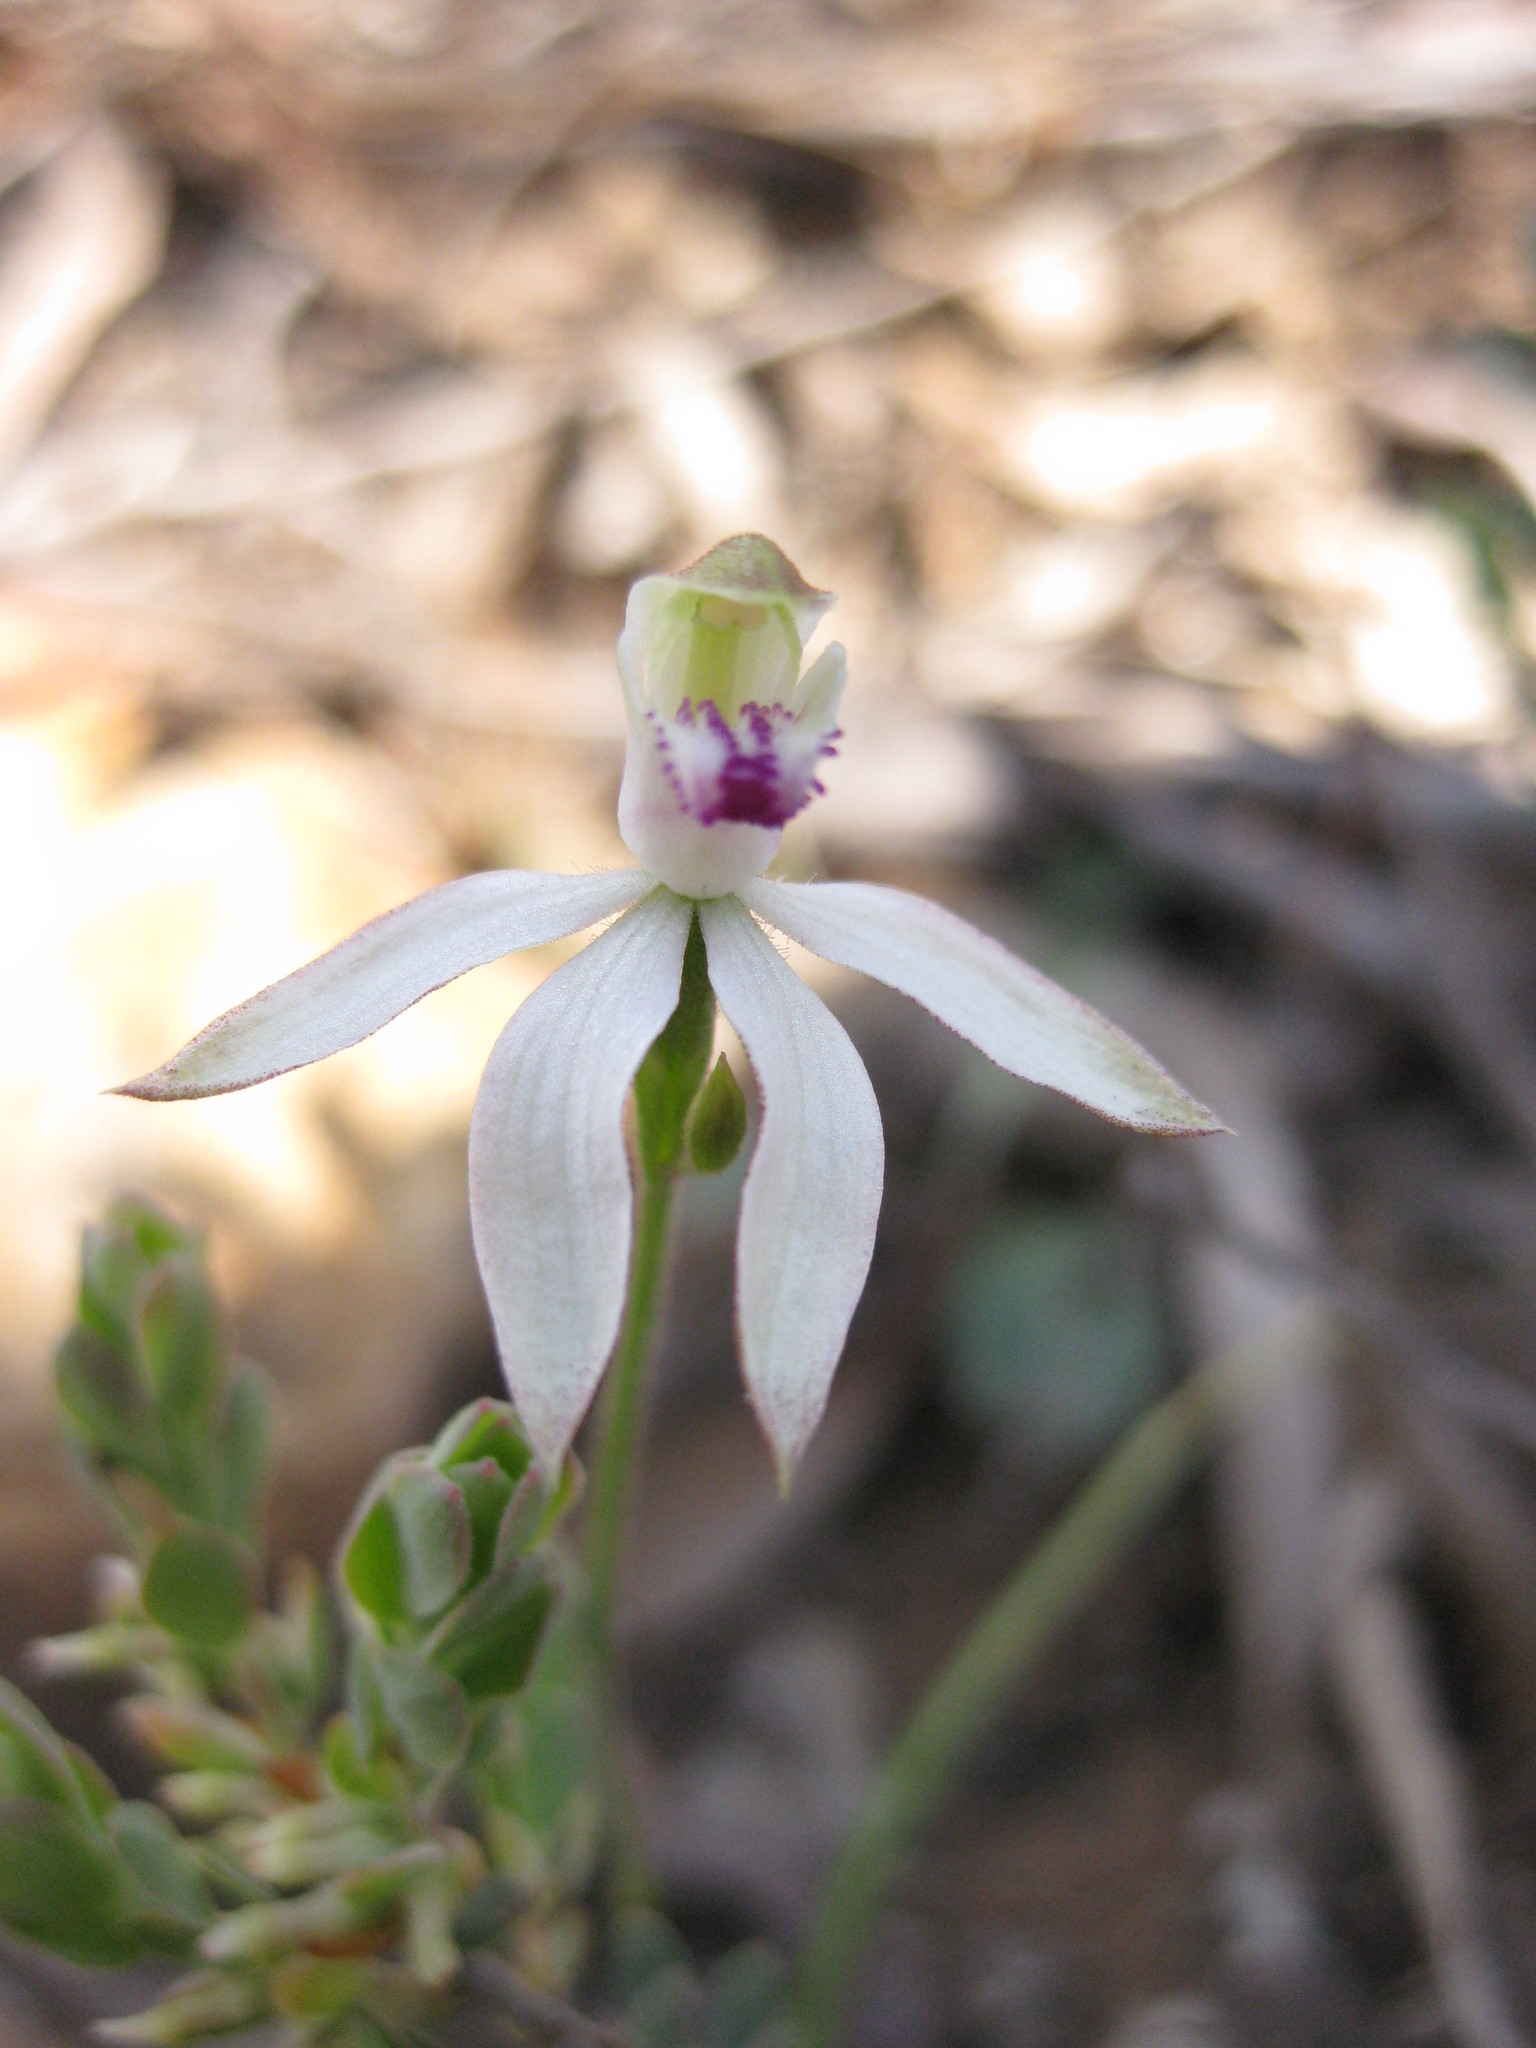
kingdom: Plantae
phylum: Tracheophyta
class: Liliopsida
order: Asparagales
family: Orchidaceae
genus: Caladenia
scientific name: Caladenia cucullata
